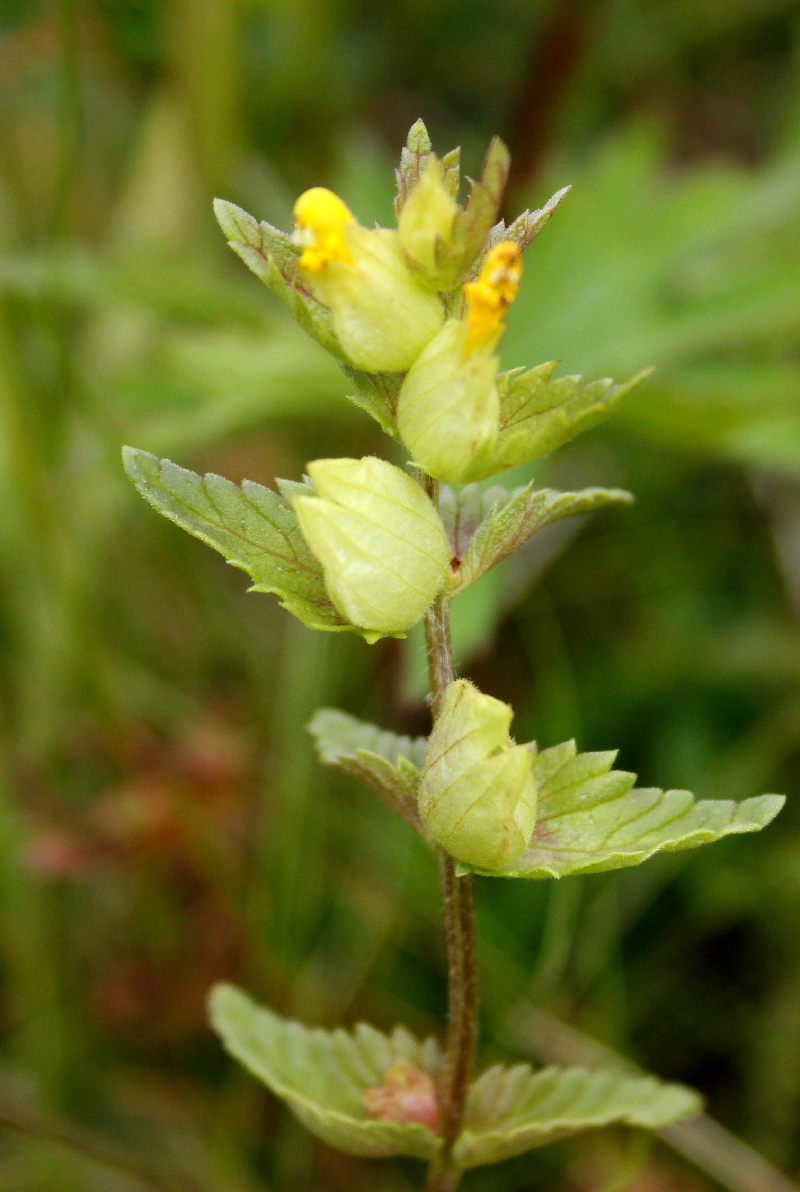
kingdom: Plantae
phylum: Tracheophyta
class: Magnoliopsida
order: Lamiales
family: Orobanchaceae
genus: Rhinanthus
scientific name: Rhinanthus minor
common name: Yellow-rattle
